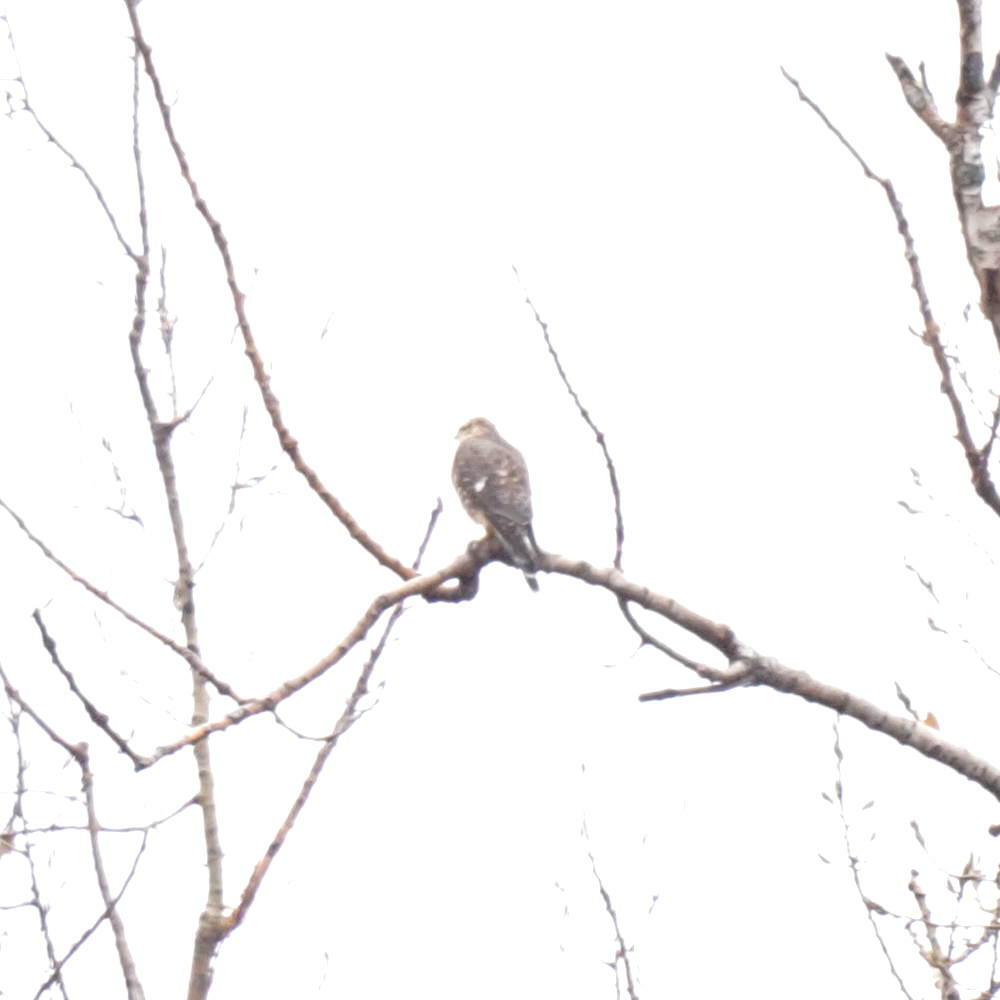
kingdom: Animalia
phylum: Chordata
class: Aves
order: Falconiformes
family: Falconidae
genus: Falco
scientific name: Falco columbarius
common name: Merlin
